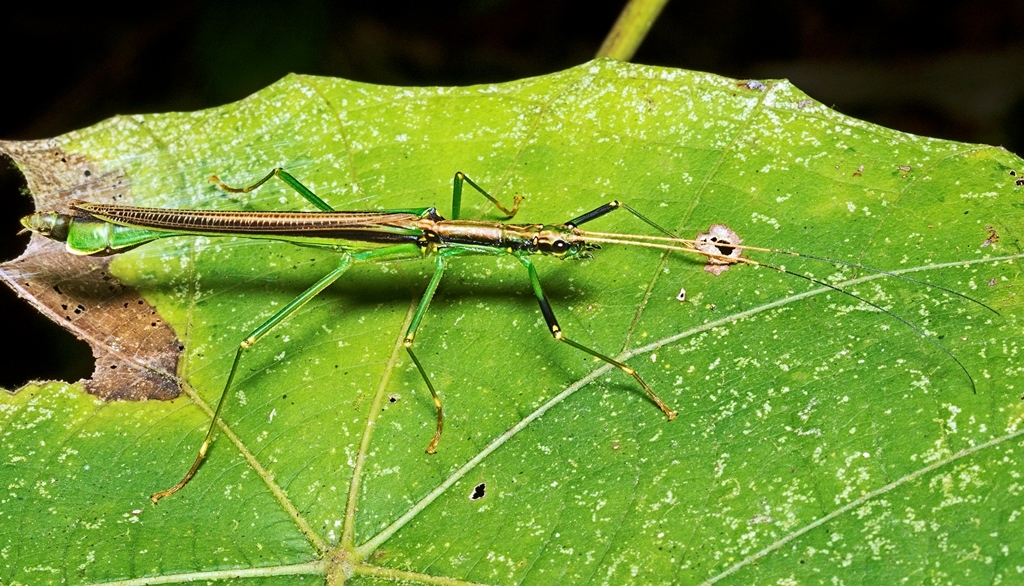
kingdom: Animalia
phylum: Arthropoda
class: Insecta
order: Phasmida
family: Aschiphasmatidae
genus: Parorthomeria
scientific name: Parorthomeria alexis
